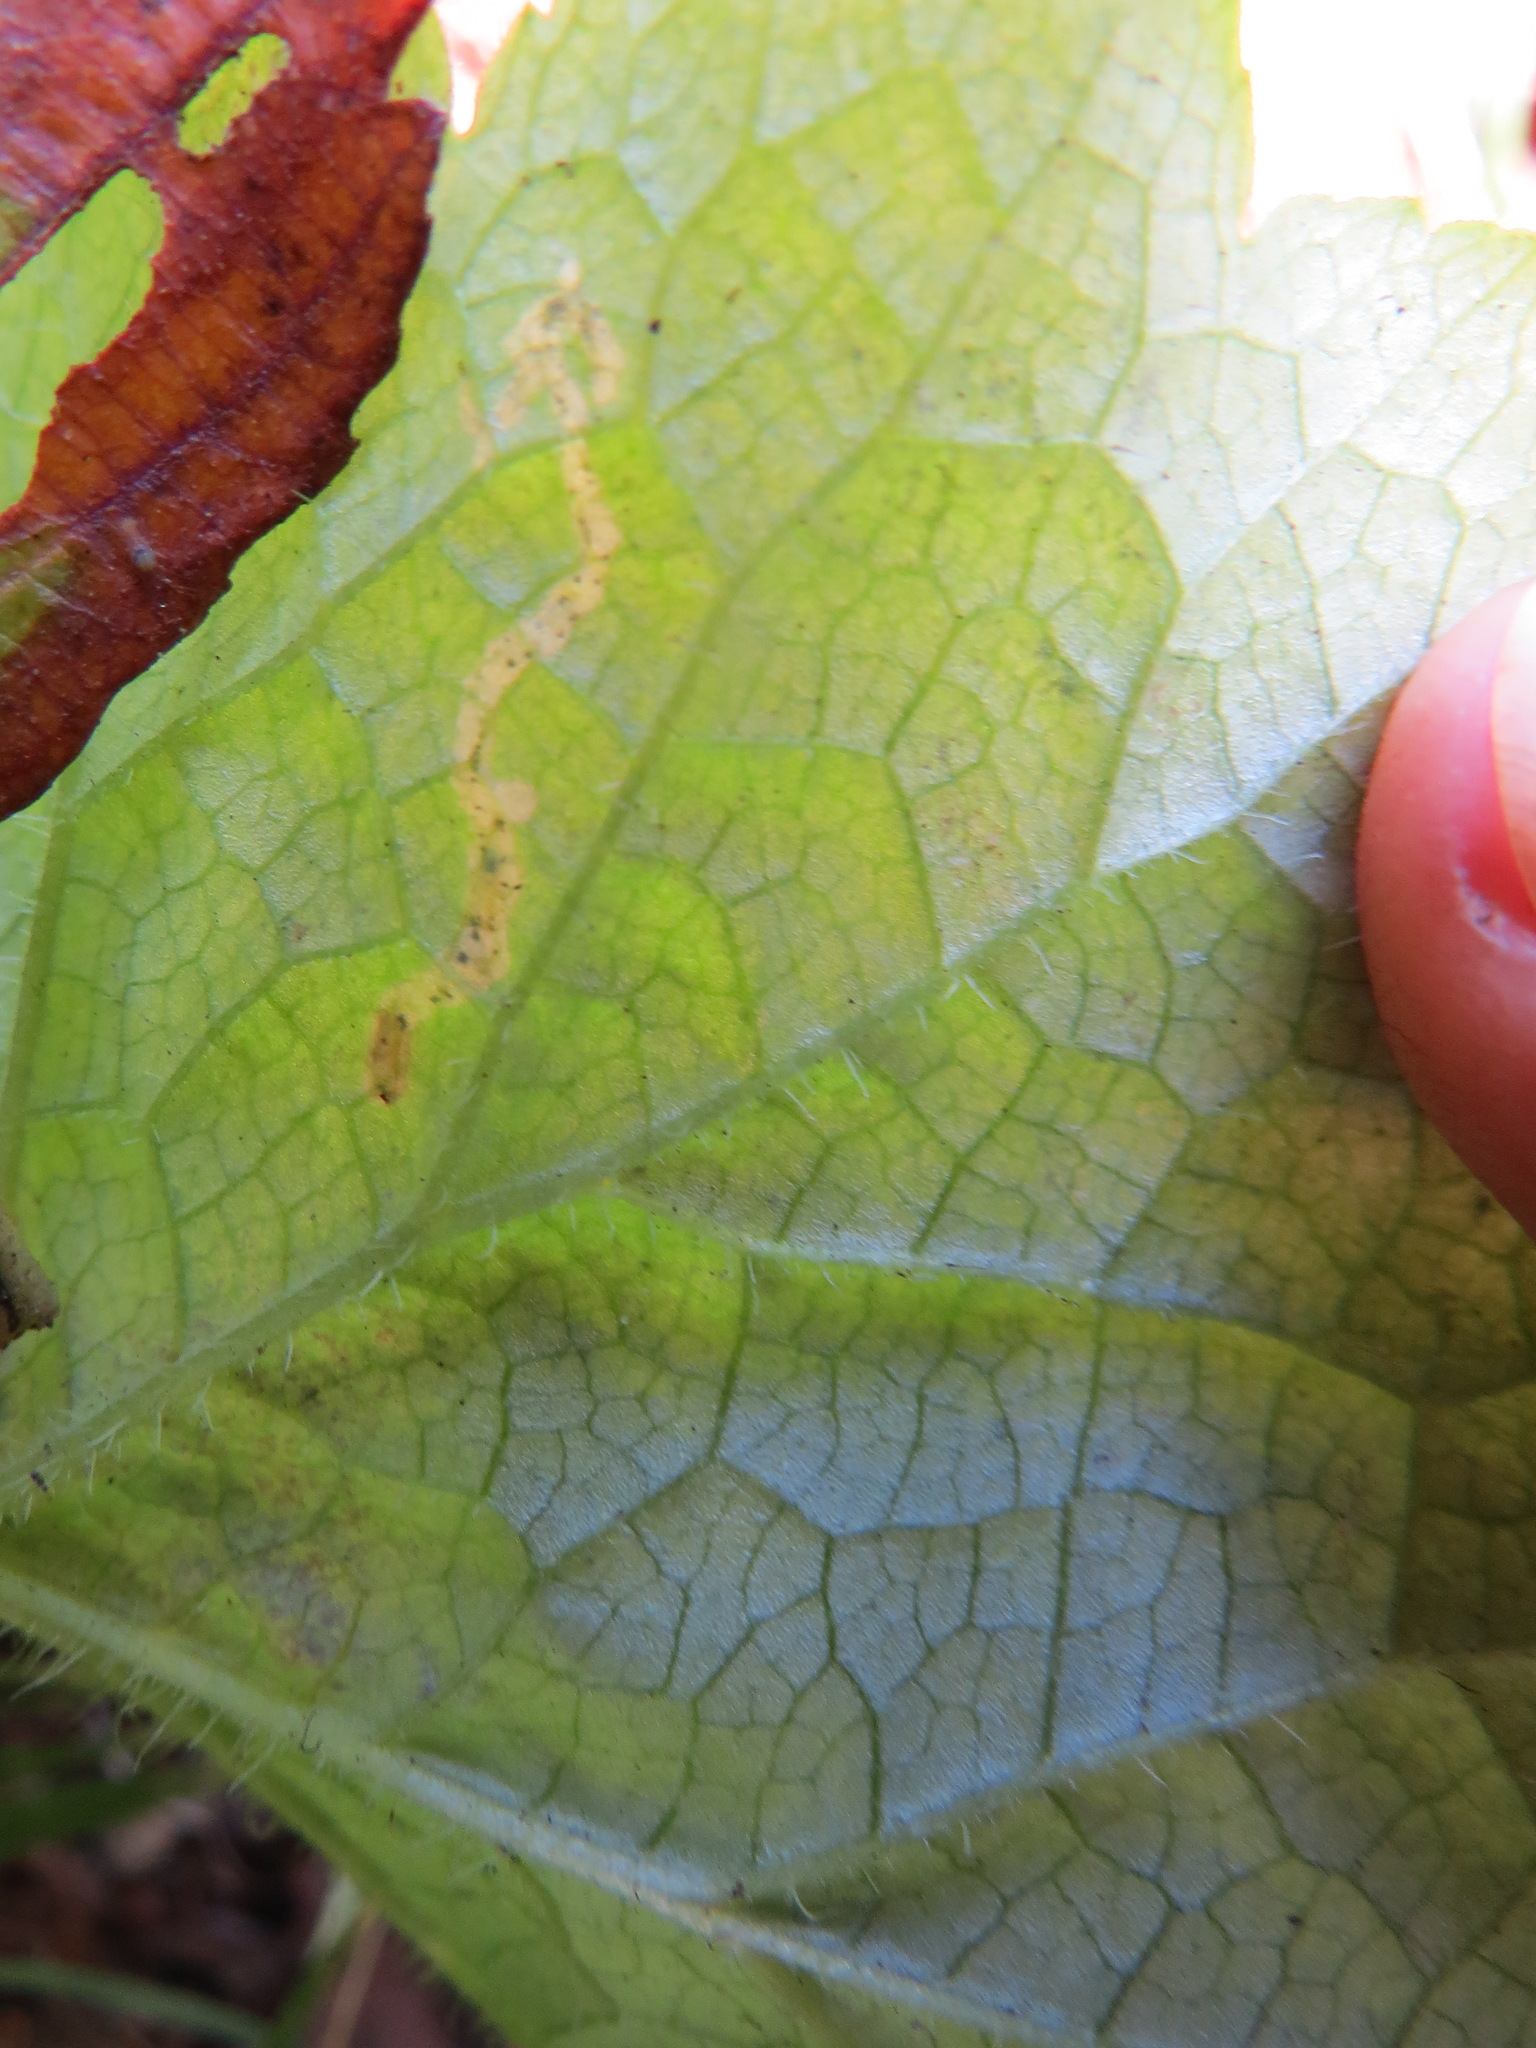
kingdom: Animalia
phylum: Arthropoda
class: Insecta
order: Diptera
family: Agromyzidae
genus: Phytomyza
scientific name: Phytomyza tiarellae
